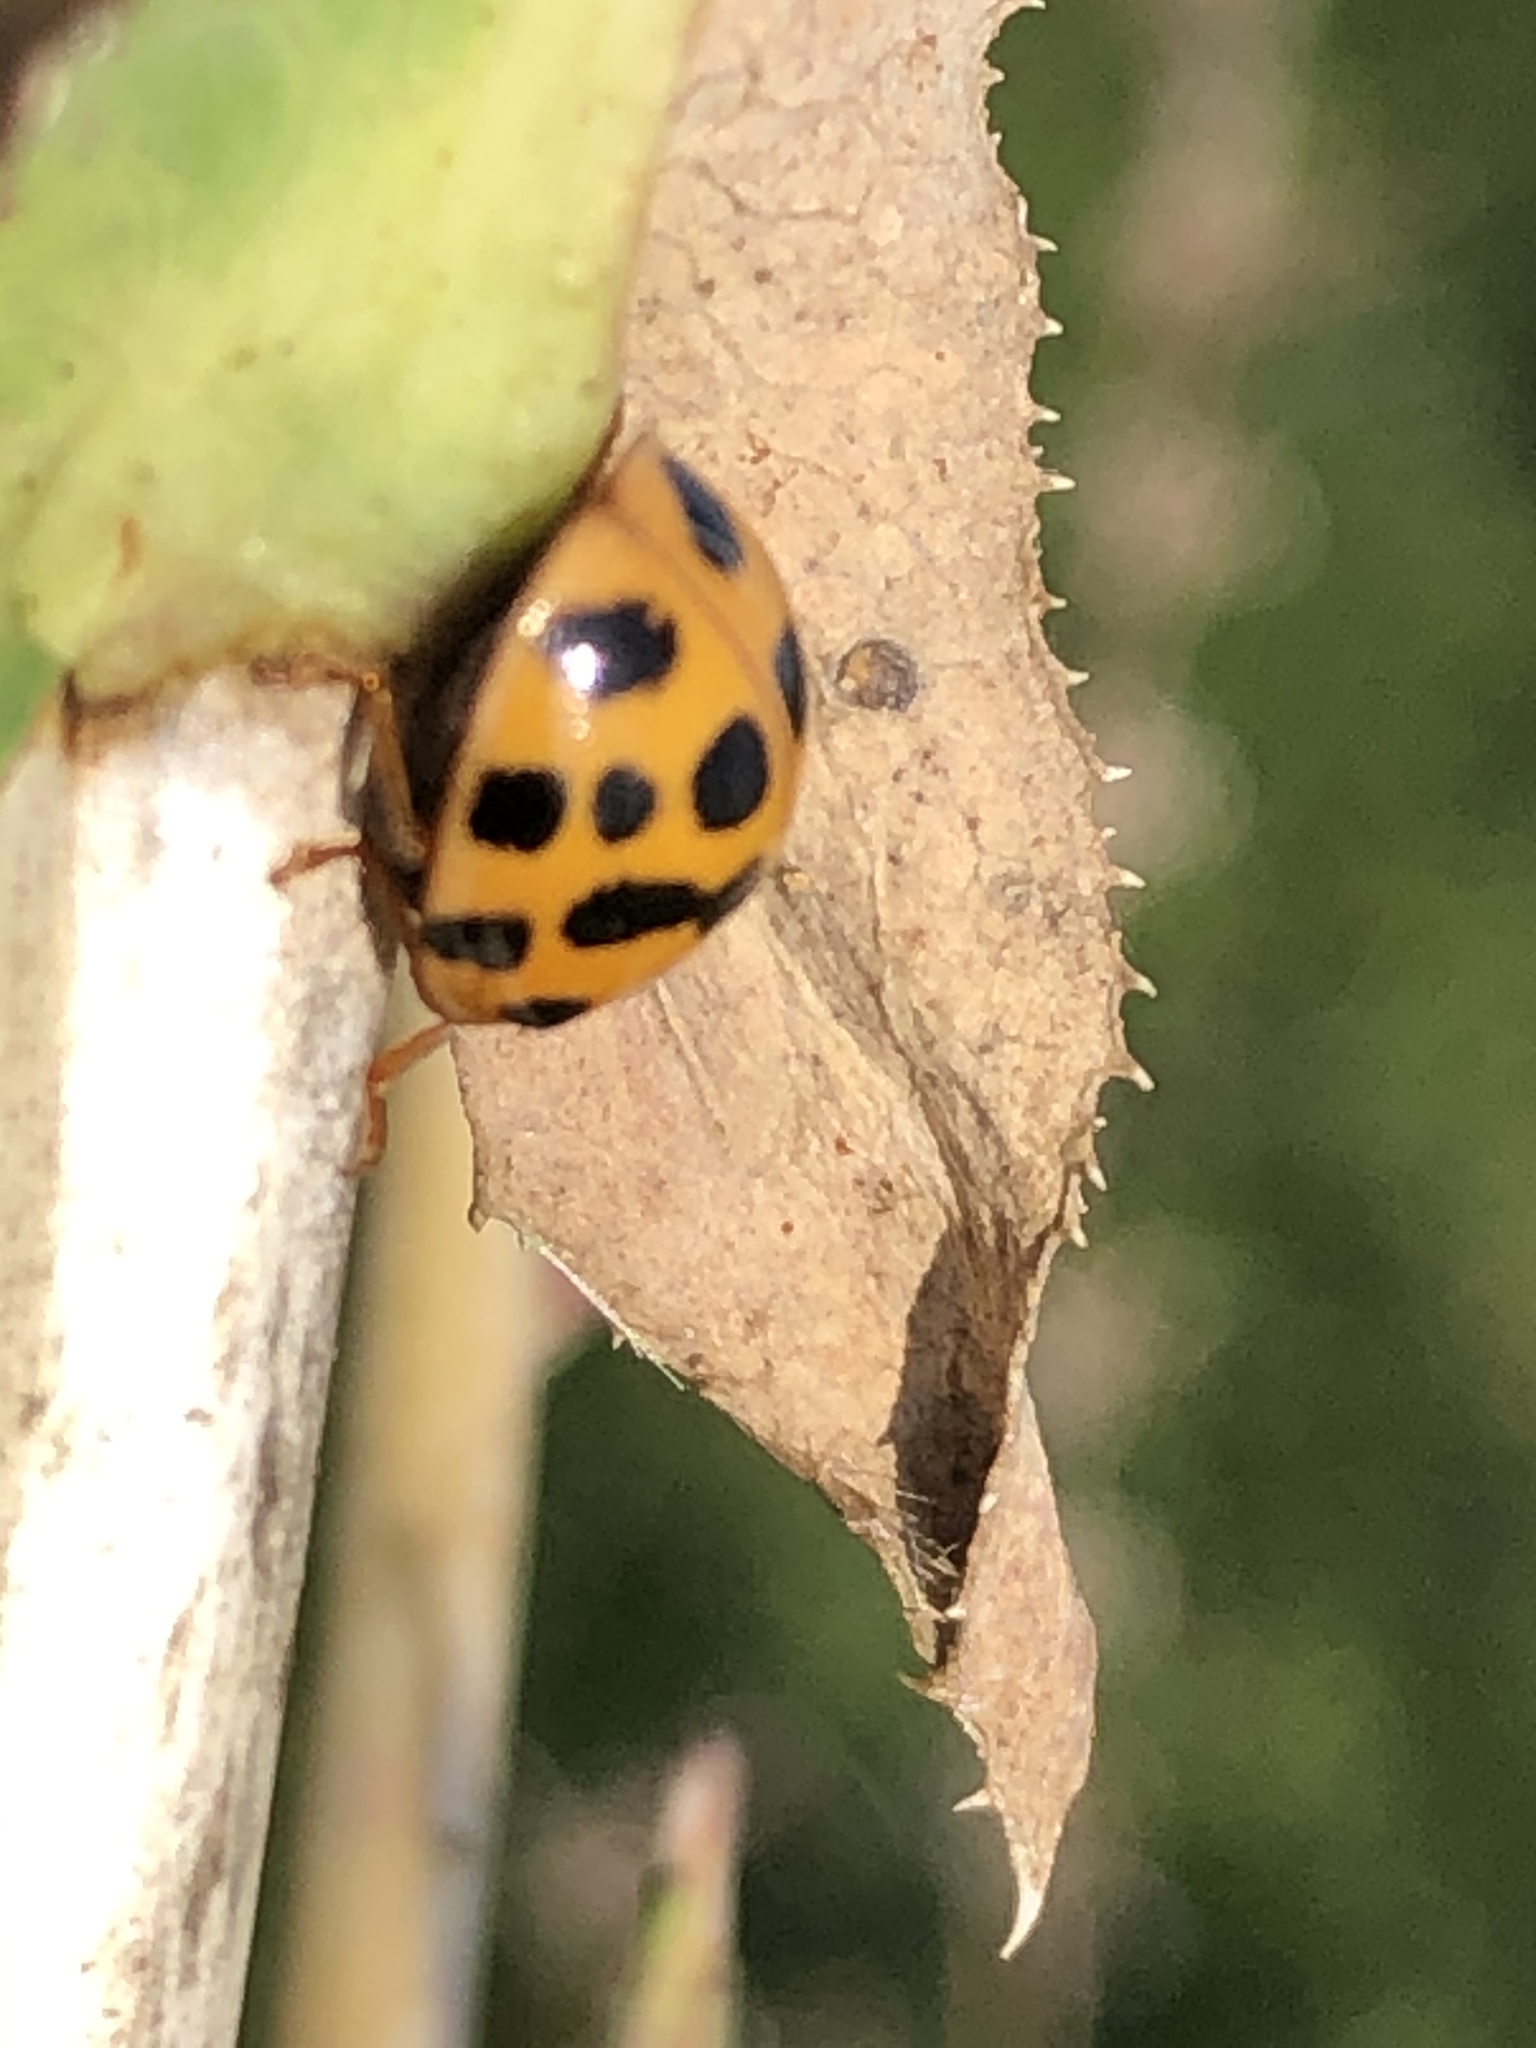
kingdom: Animalia
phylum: Arthropoda
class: Insecta
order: Coleoptera
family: Coccinellidae
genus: Harmonia
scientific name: Harmonia axyridis
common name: Harlequin ladybird
